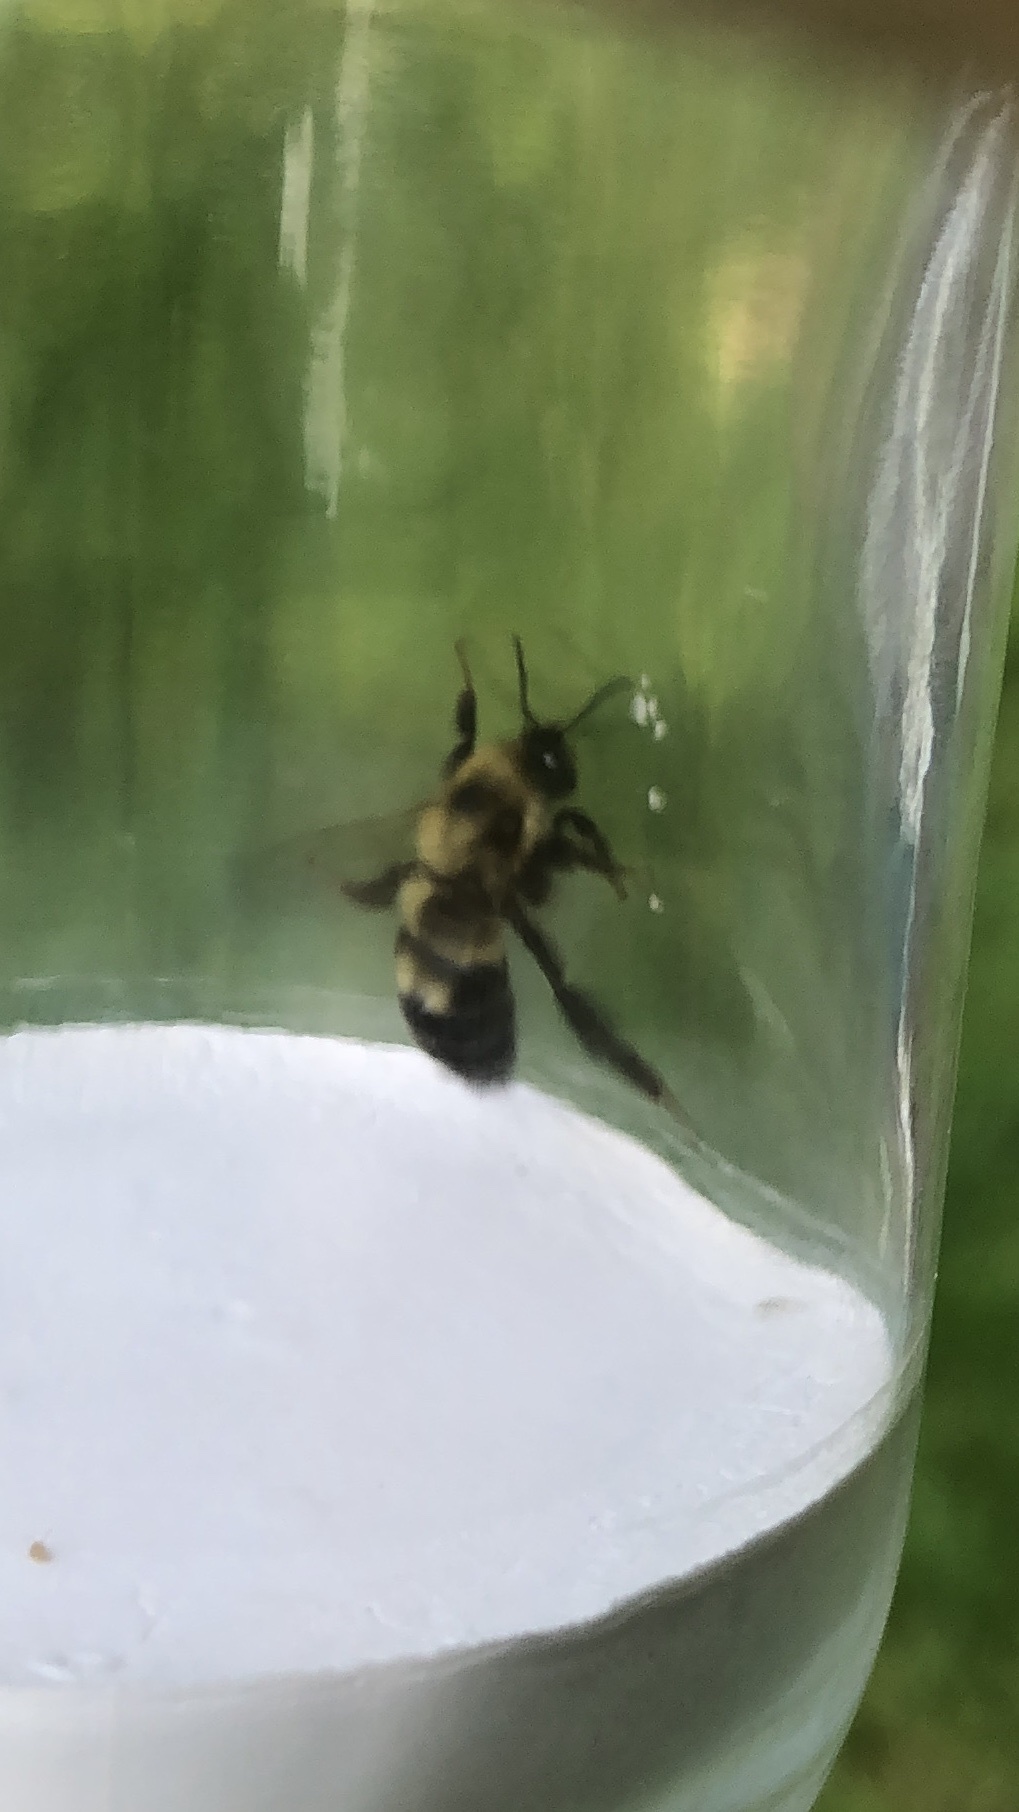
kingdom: Animalia
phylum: Arthropoda
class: Insecta
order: Hymenoptera
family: Apidae
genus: Bombus
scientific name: Bombus bimaculatus
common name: Two-spotted bumble bee
